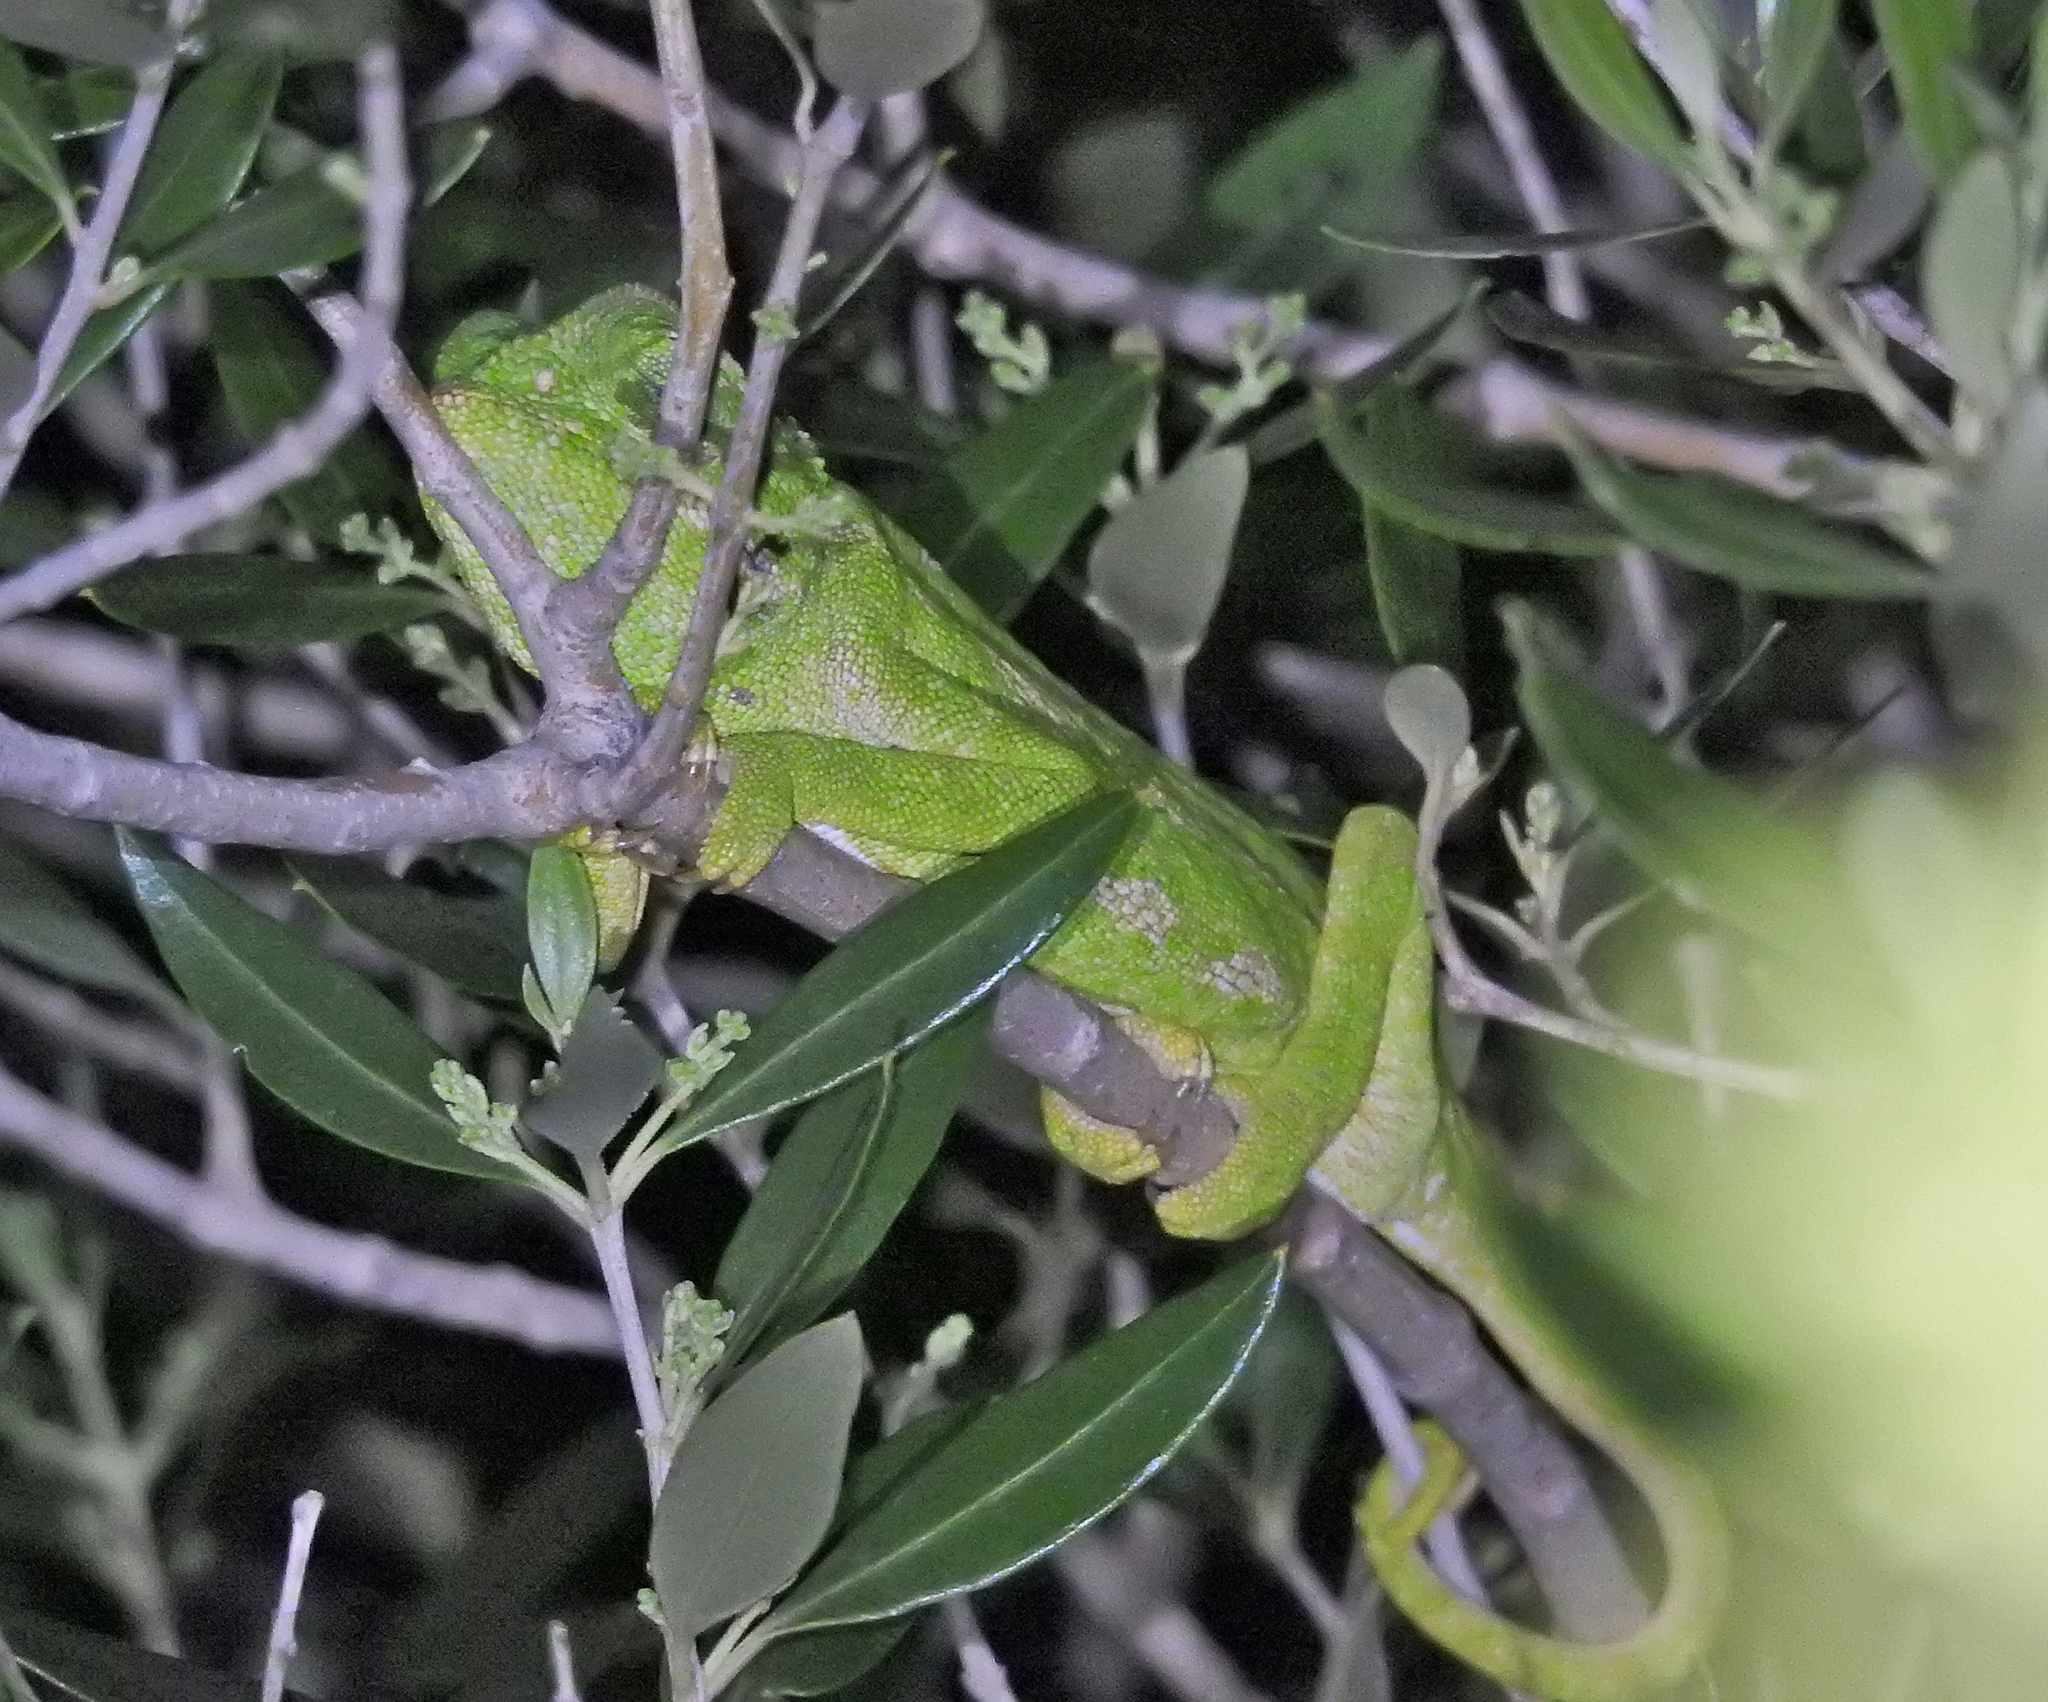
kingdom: Animalia
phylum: Chordata
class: Squamata
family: Chamaeleonidae
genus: Chamaeleo
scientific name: Chamaeleo chamaeleon
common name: Mediterranean chameleon
